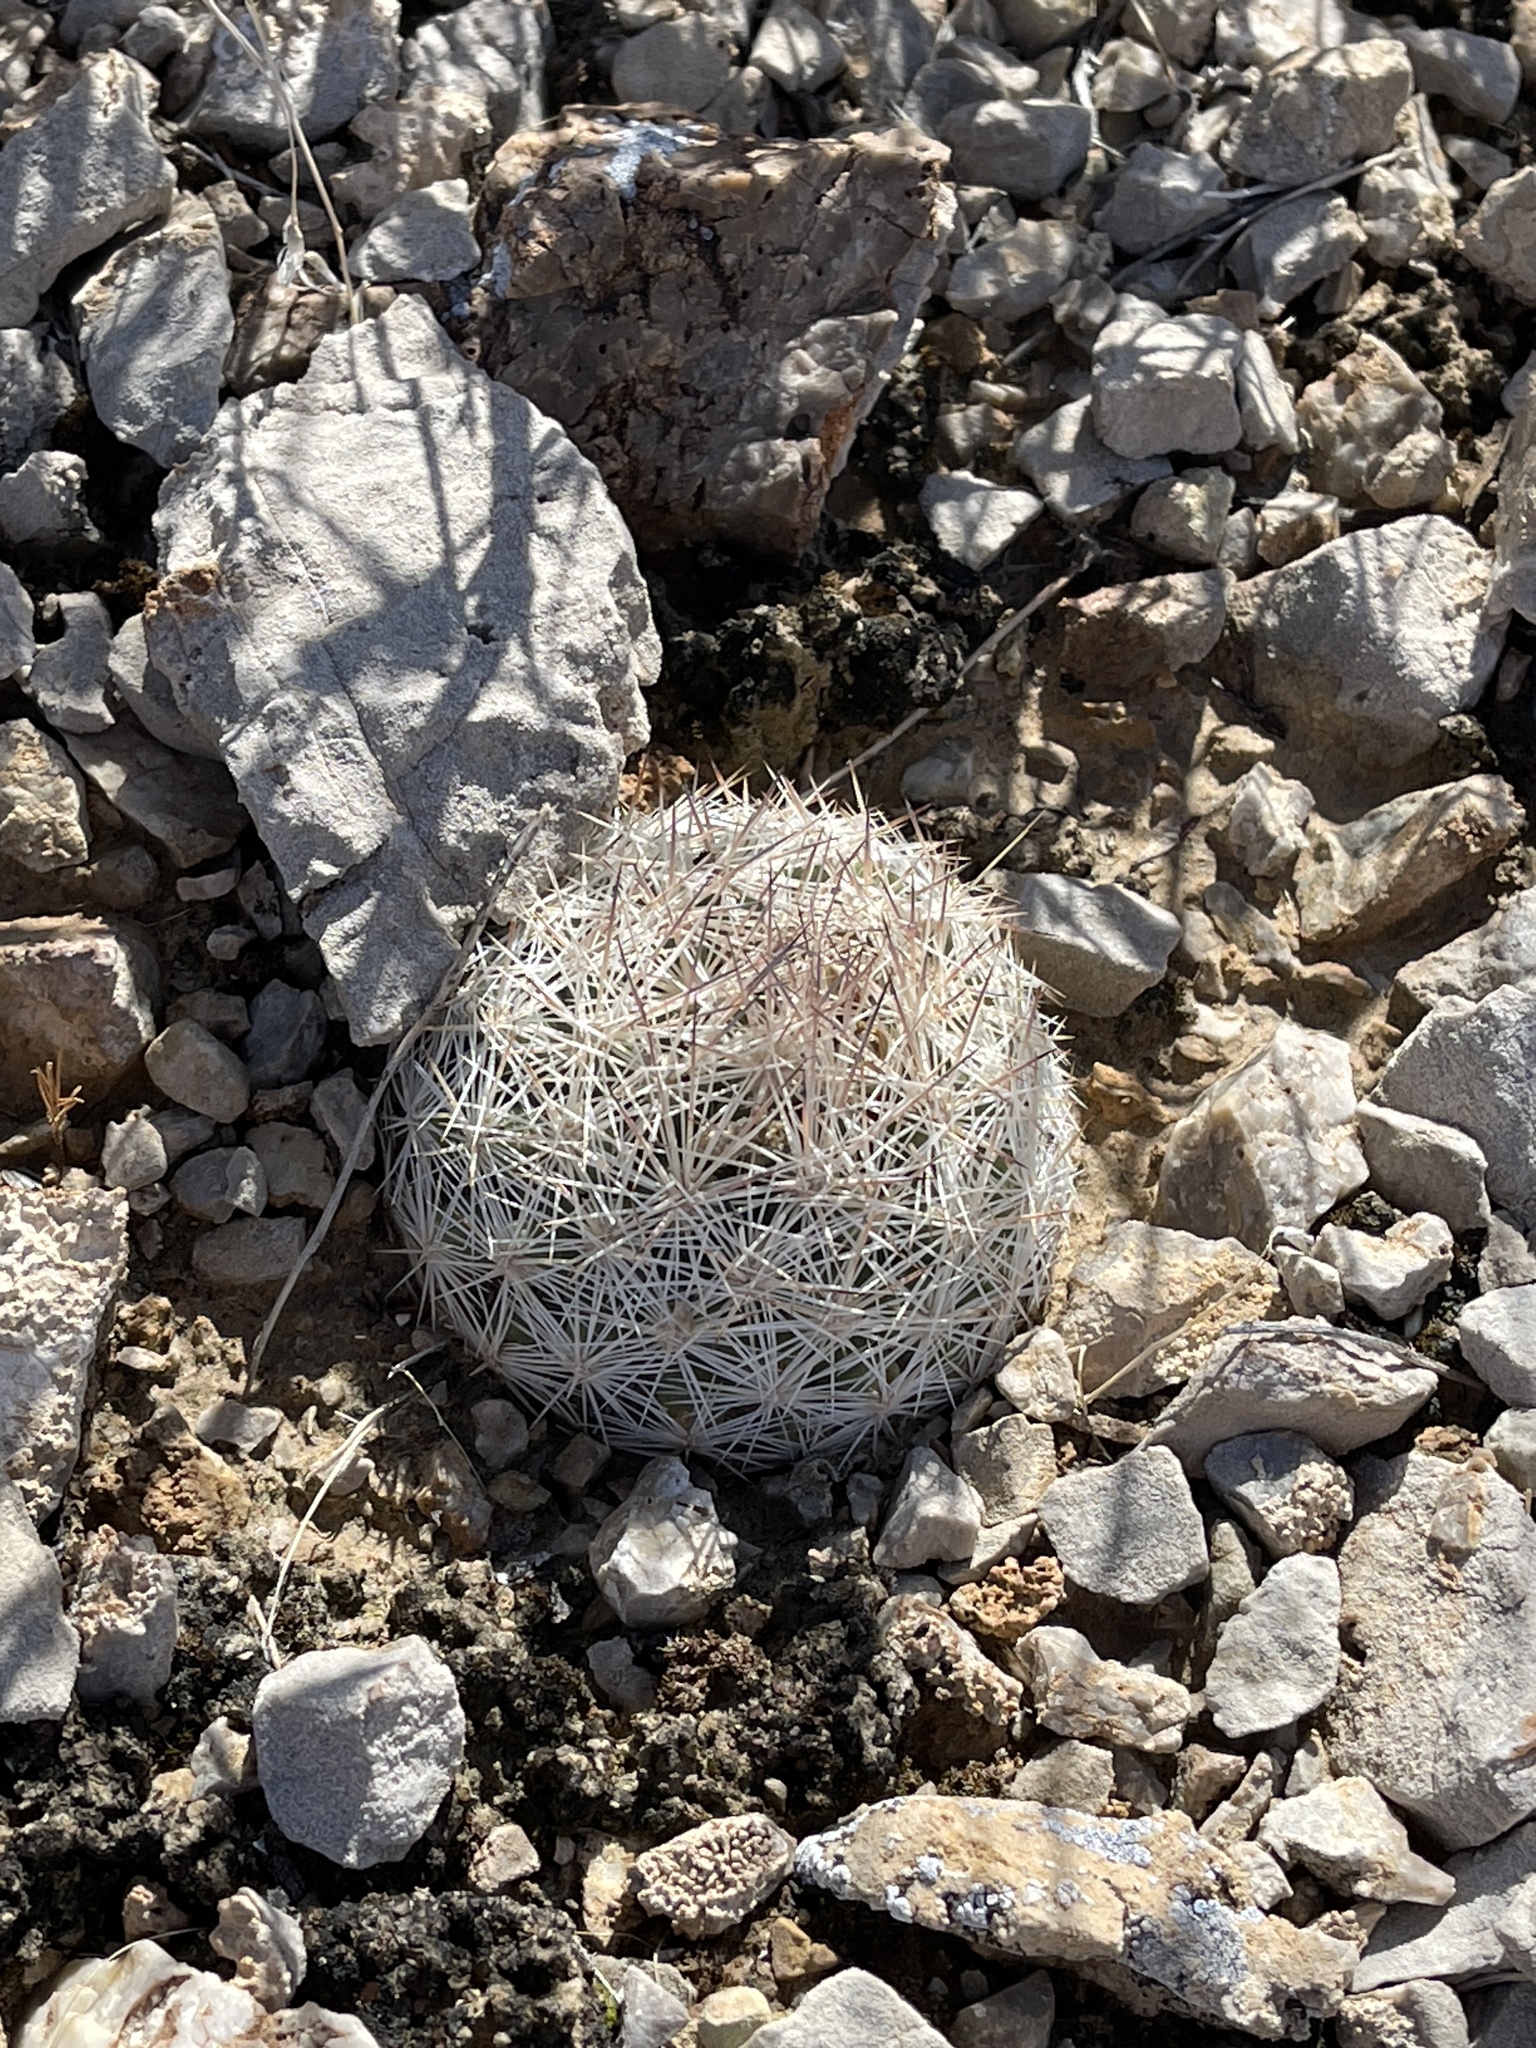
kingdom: Plantae
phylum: Tracheophyta
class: Magnoliopsida
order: Caryophyllales
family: Cactaceae
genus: Pelecyphora
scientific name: Pelecyphora dasyacantha
